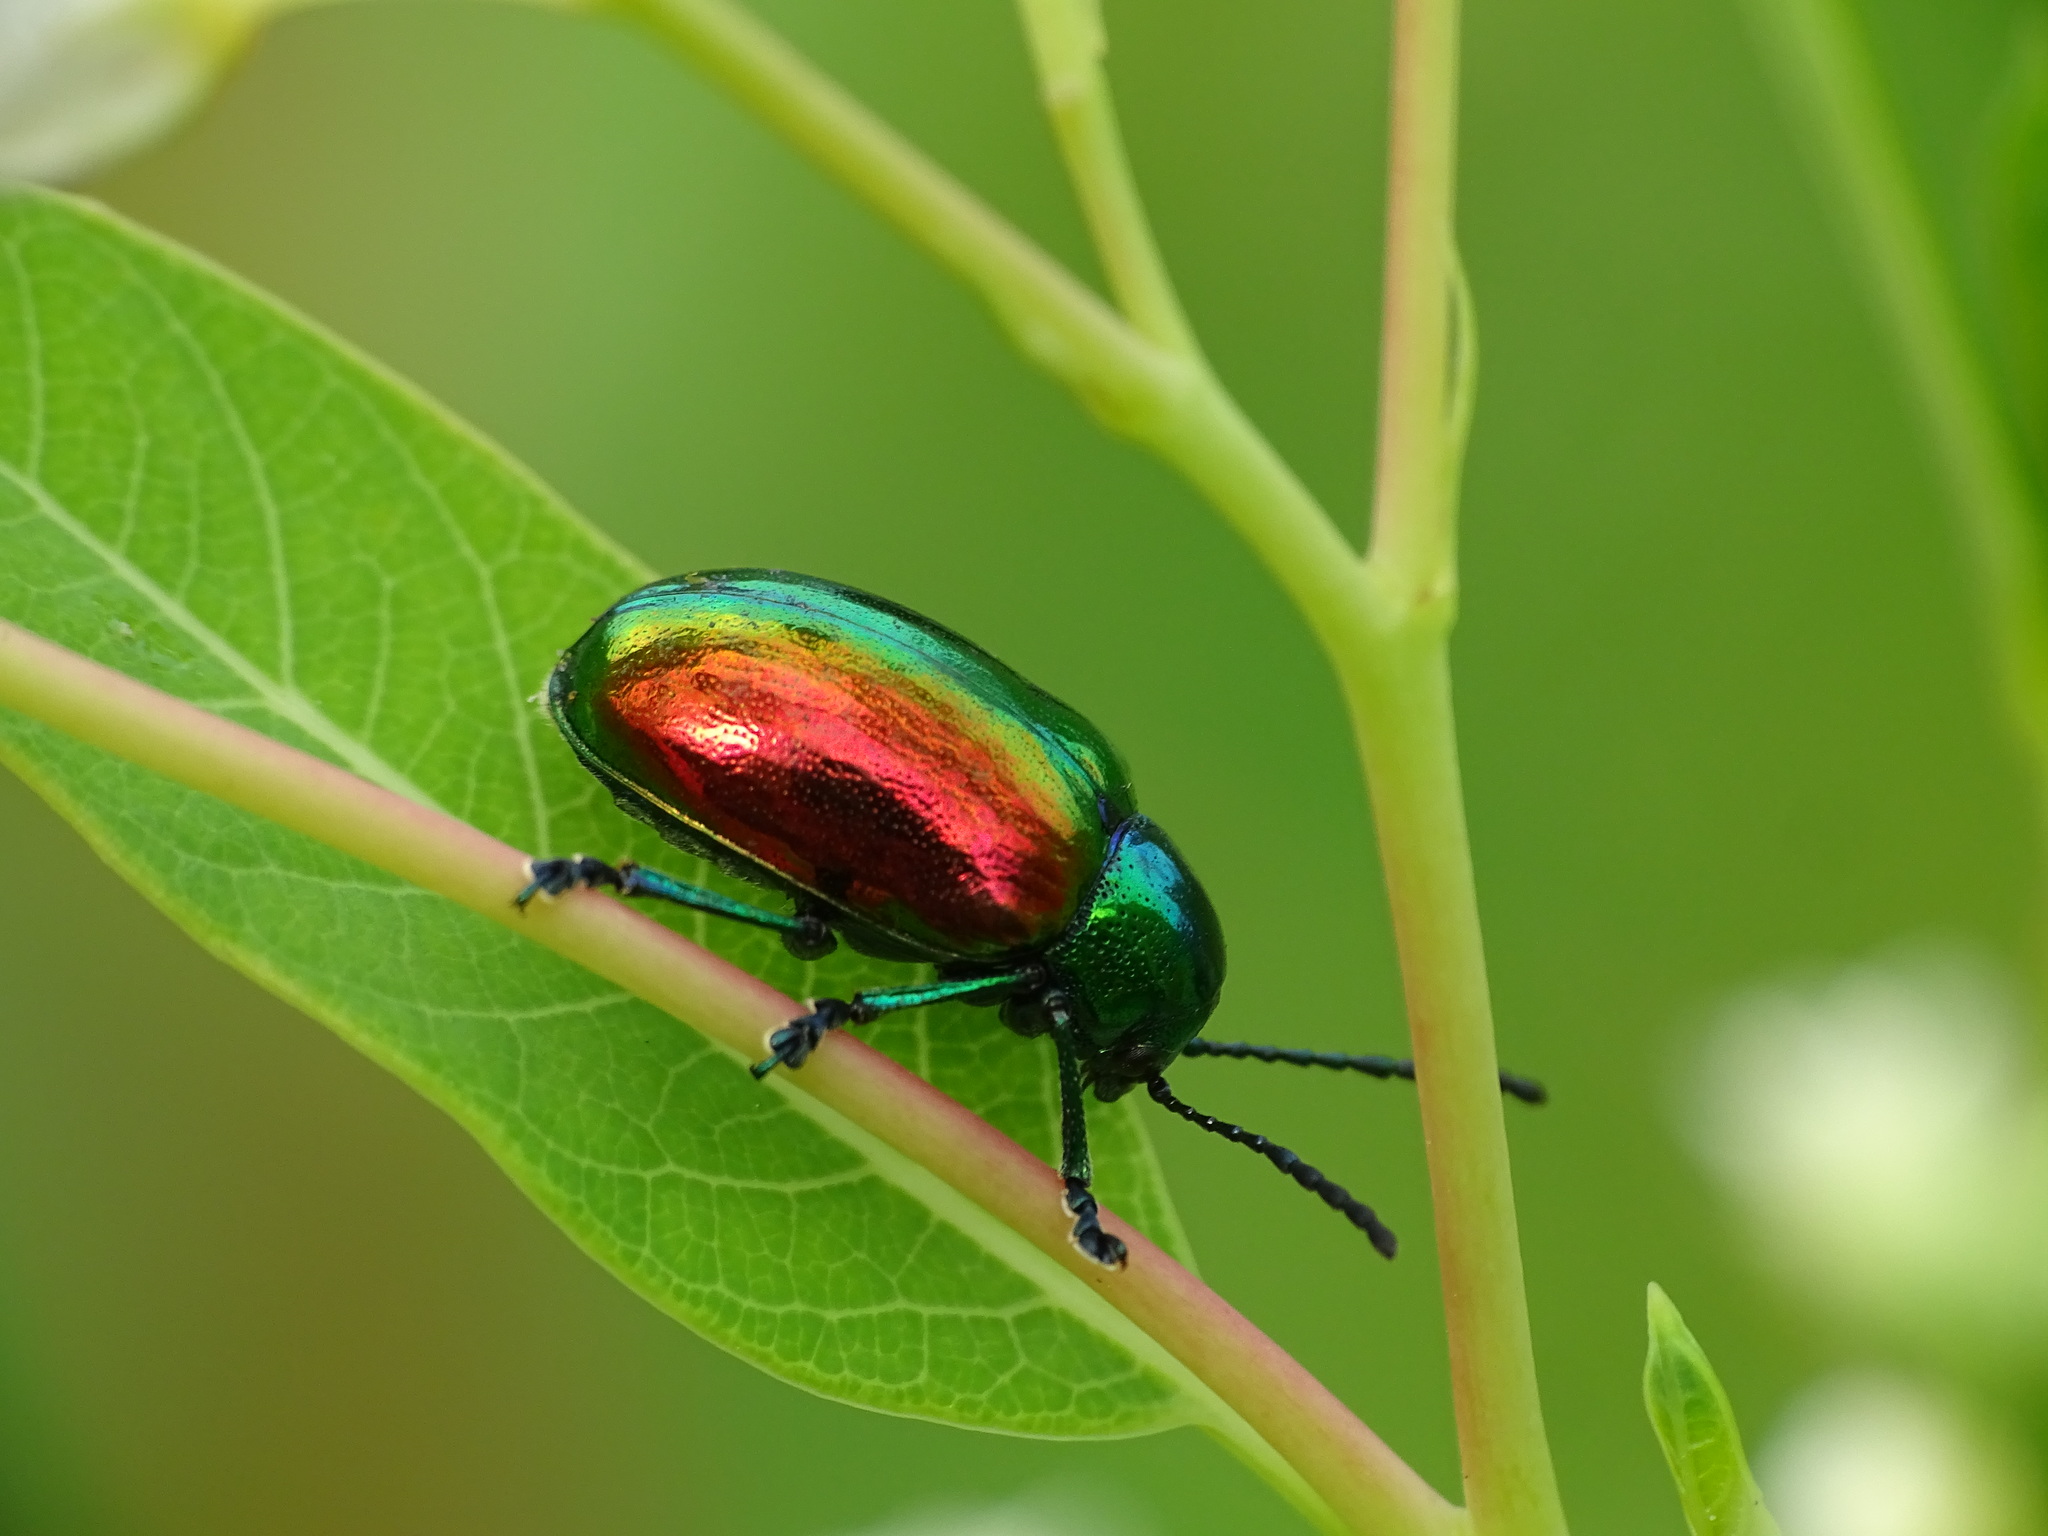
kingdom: Animalia
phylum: Arthropoda
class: Insecta
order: Coleoptera
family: Chrysomelidae
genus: Chrysochus
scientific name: Chrysochus auratus
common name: Dogbane leaf beetle
